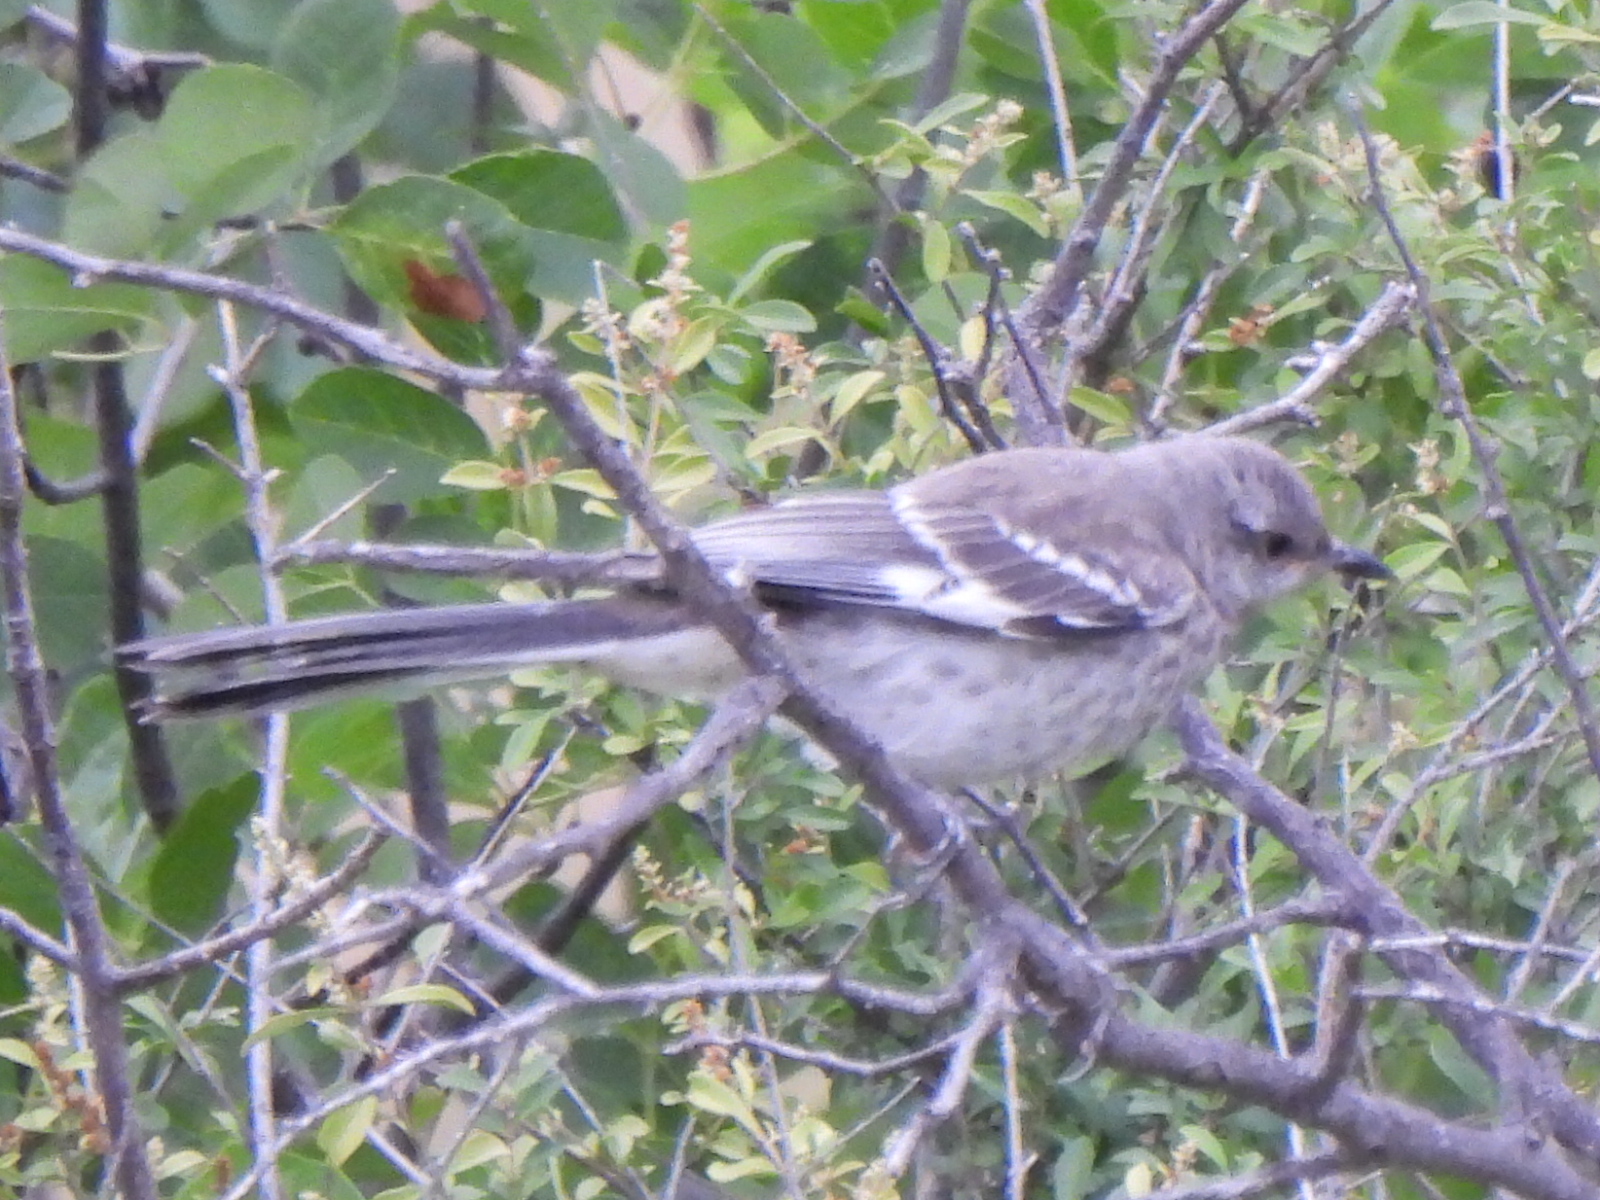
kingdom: Animalia
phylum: Chordata
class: Aves
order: Passeriformes
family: Mimidae
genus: Mimus
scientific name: Mimus polyglottos
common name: Northern mockingbird
